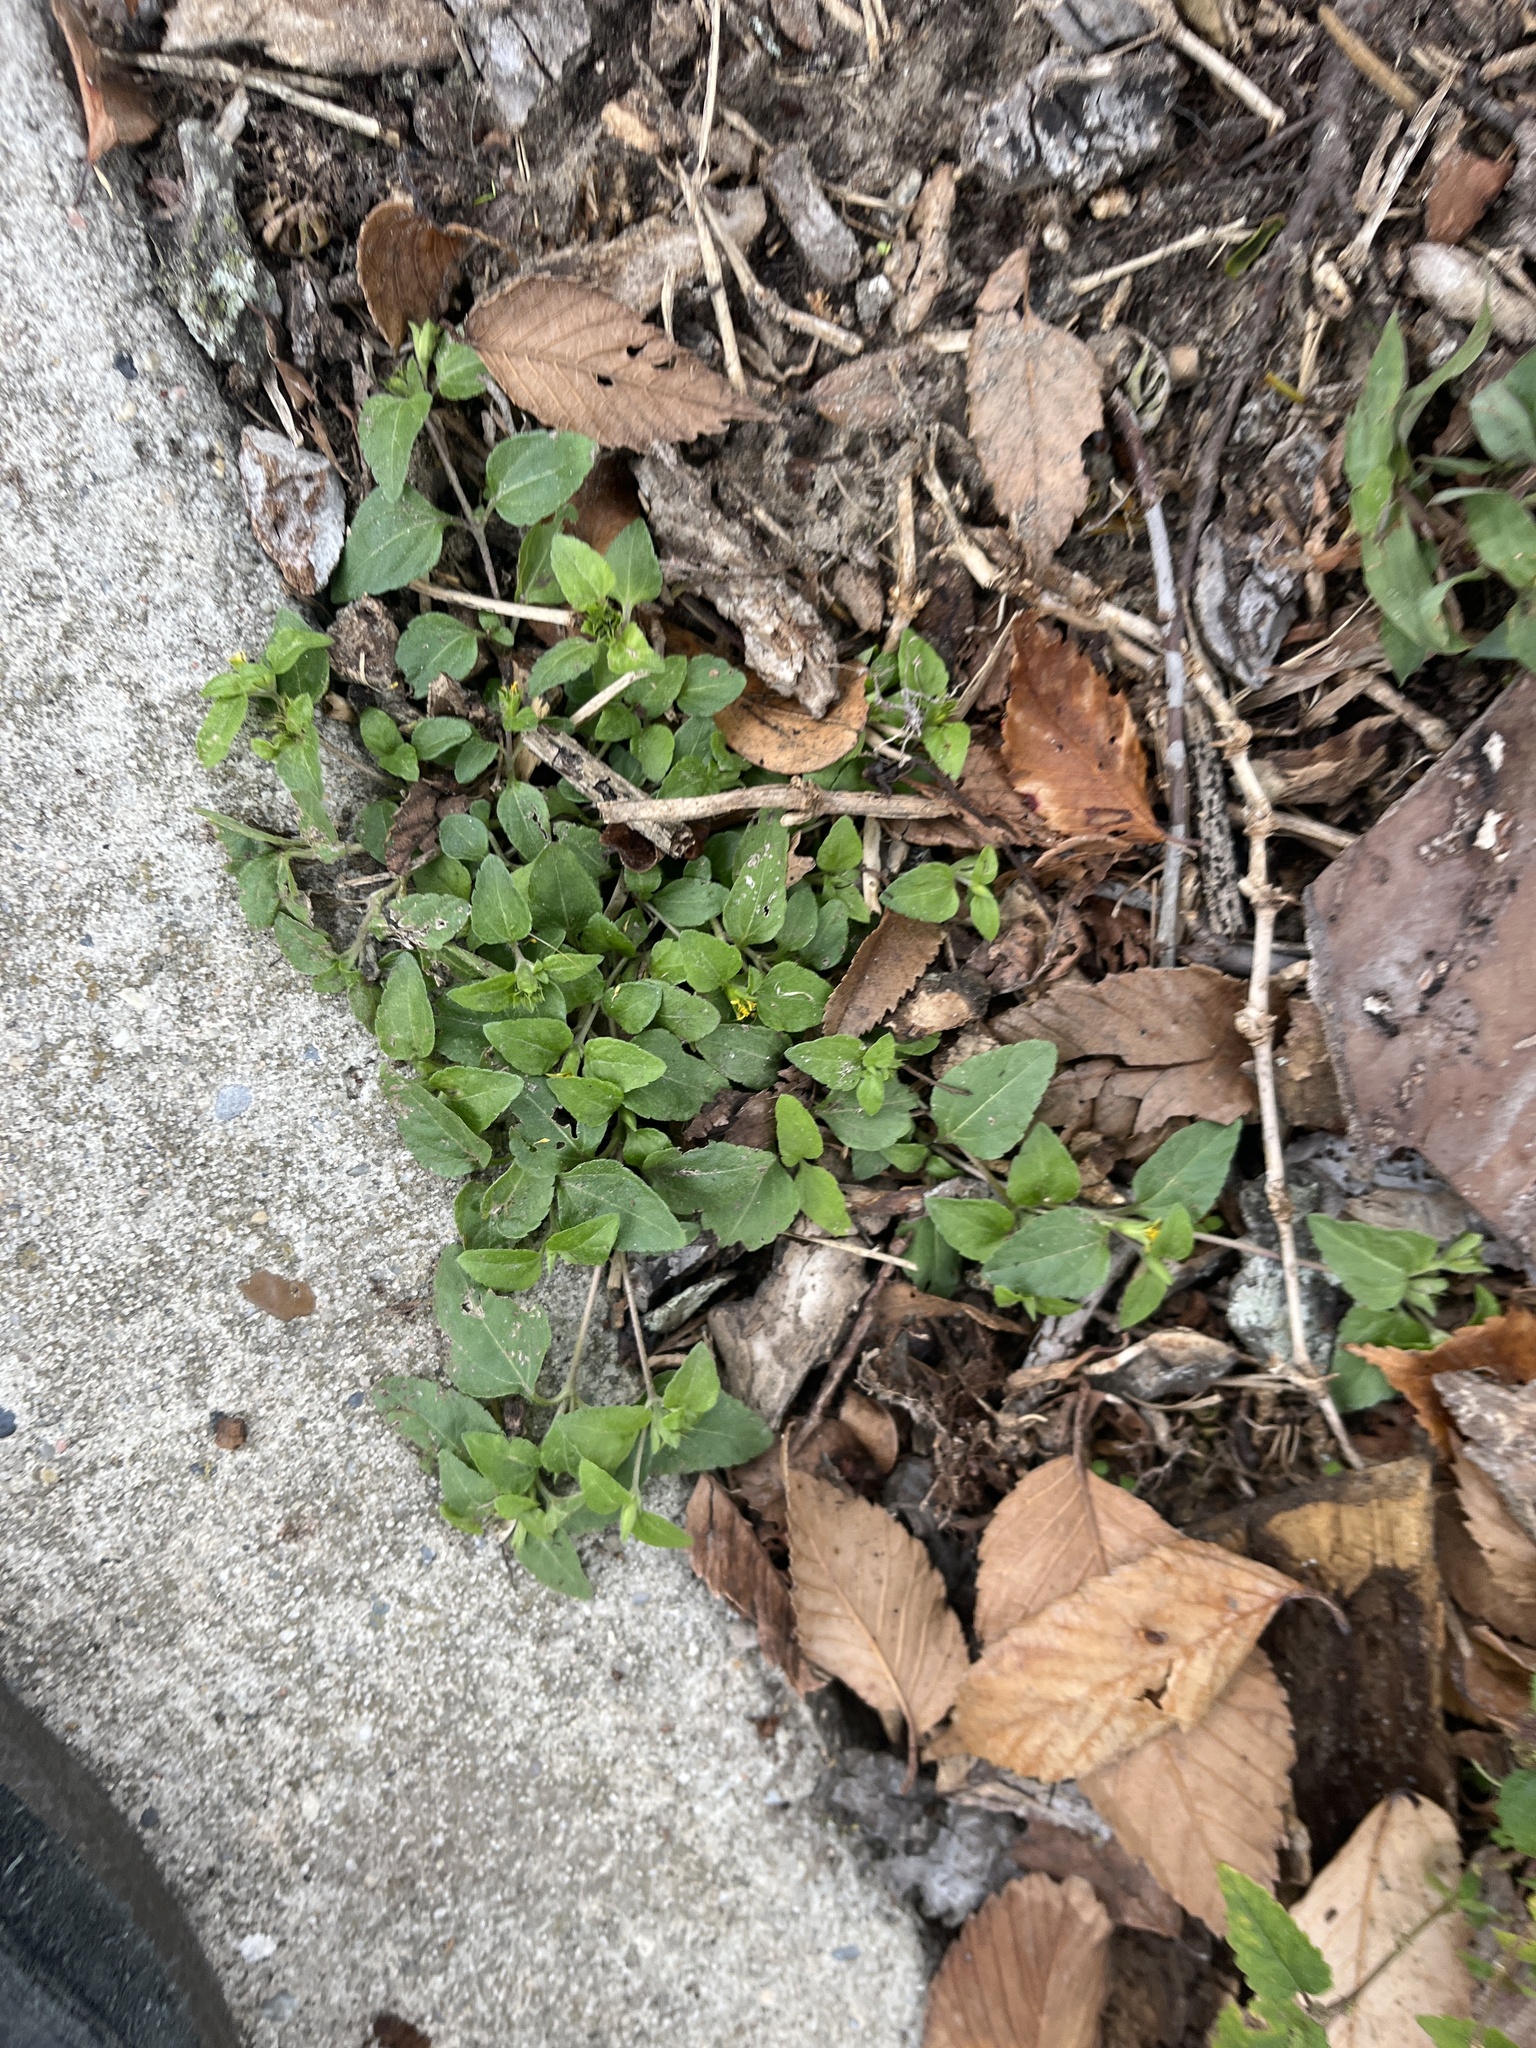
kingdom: Plantae
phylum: Tracheophyta
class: Magnoliopsida
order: Asterales
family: Asteraceae
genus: Calyptocarpus
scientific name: Calyptocarpus vialis
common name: Straggler daisy
